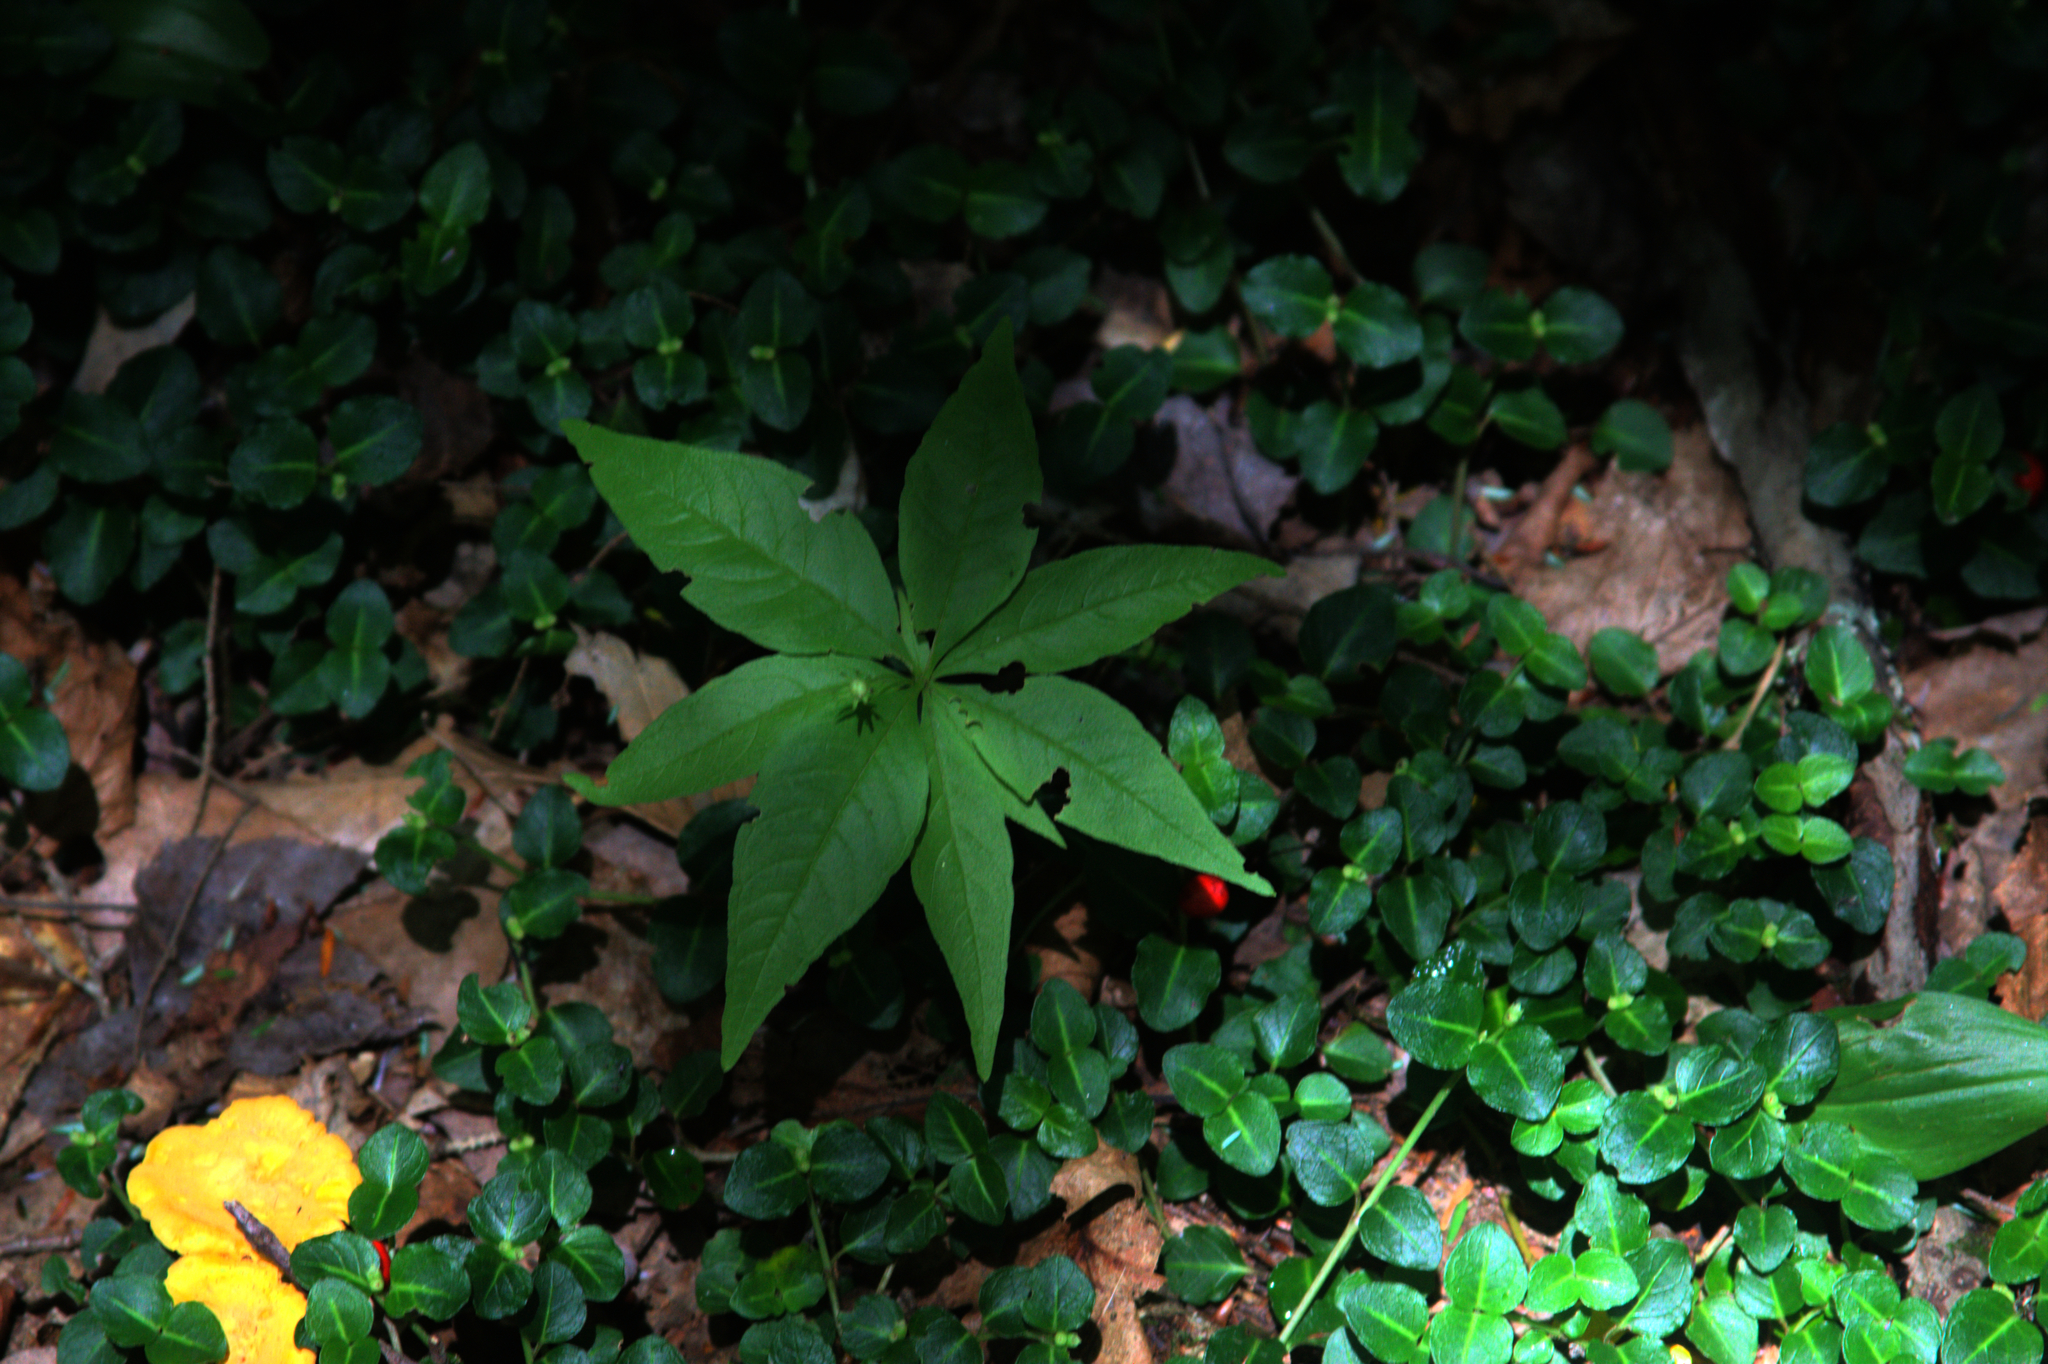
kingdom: Plantae
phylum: Tracheophyta
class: Magnoliopsida
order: Ericales
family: Primulaceae
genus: Lysimachia
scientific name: Lysimachia borealis
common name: American starflower
